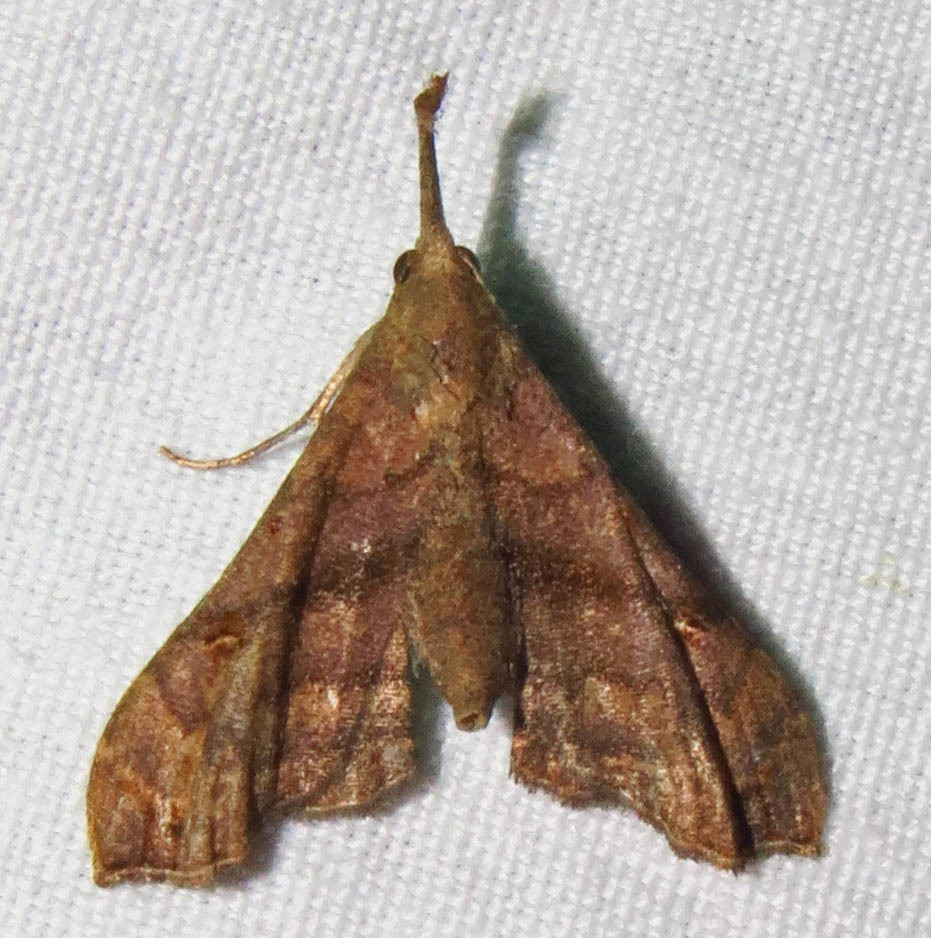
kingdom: Animalia
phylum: Arthropoda
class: Insecta
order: Lepidoptera
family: Erebidae
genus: Palthis
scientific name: Palthis asopialis
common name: Faint-spotted palthis moth
